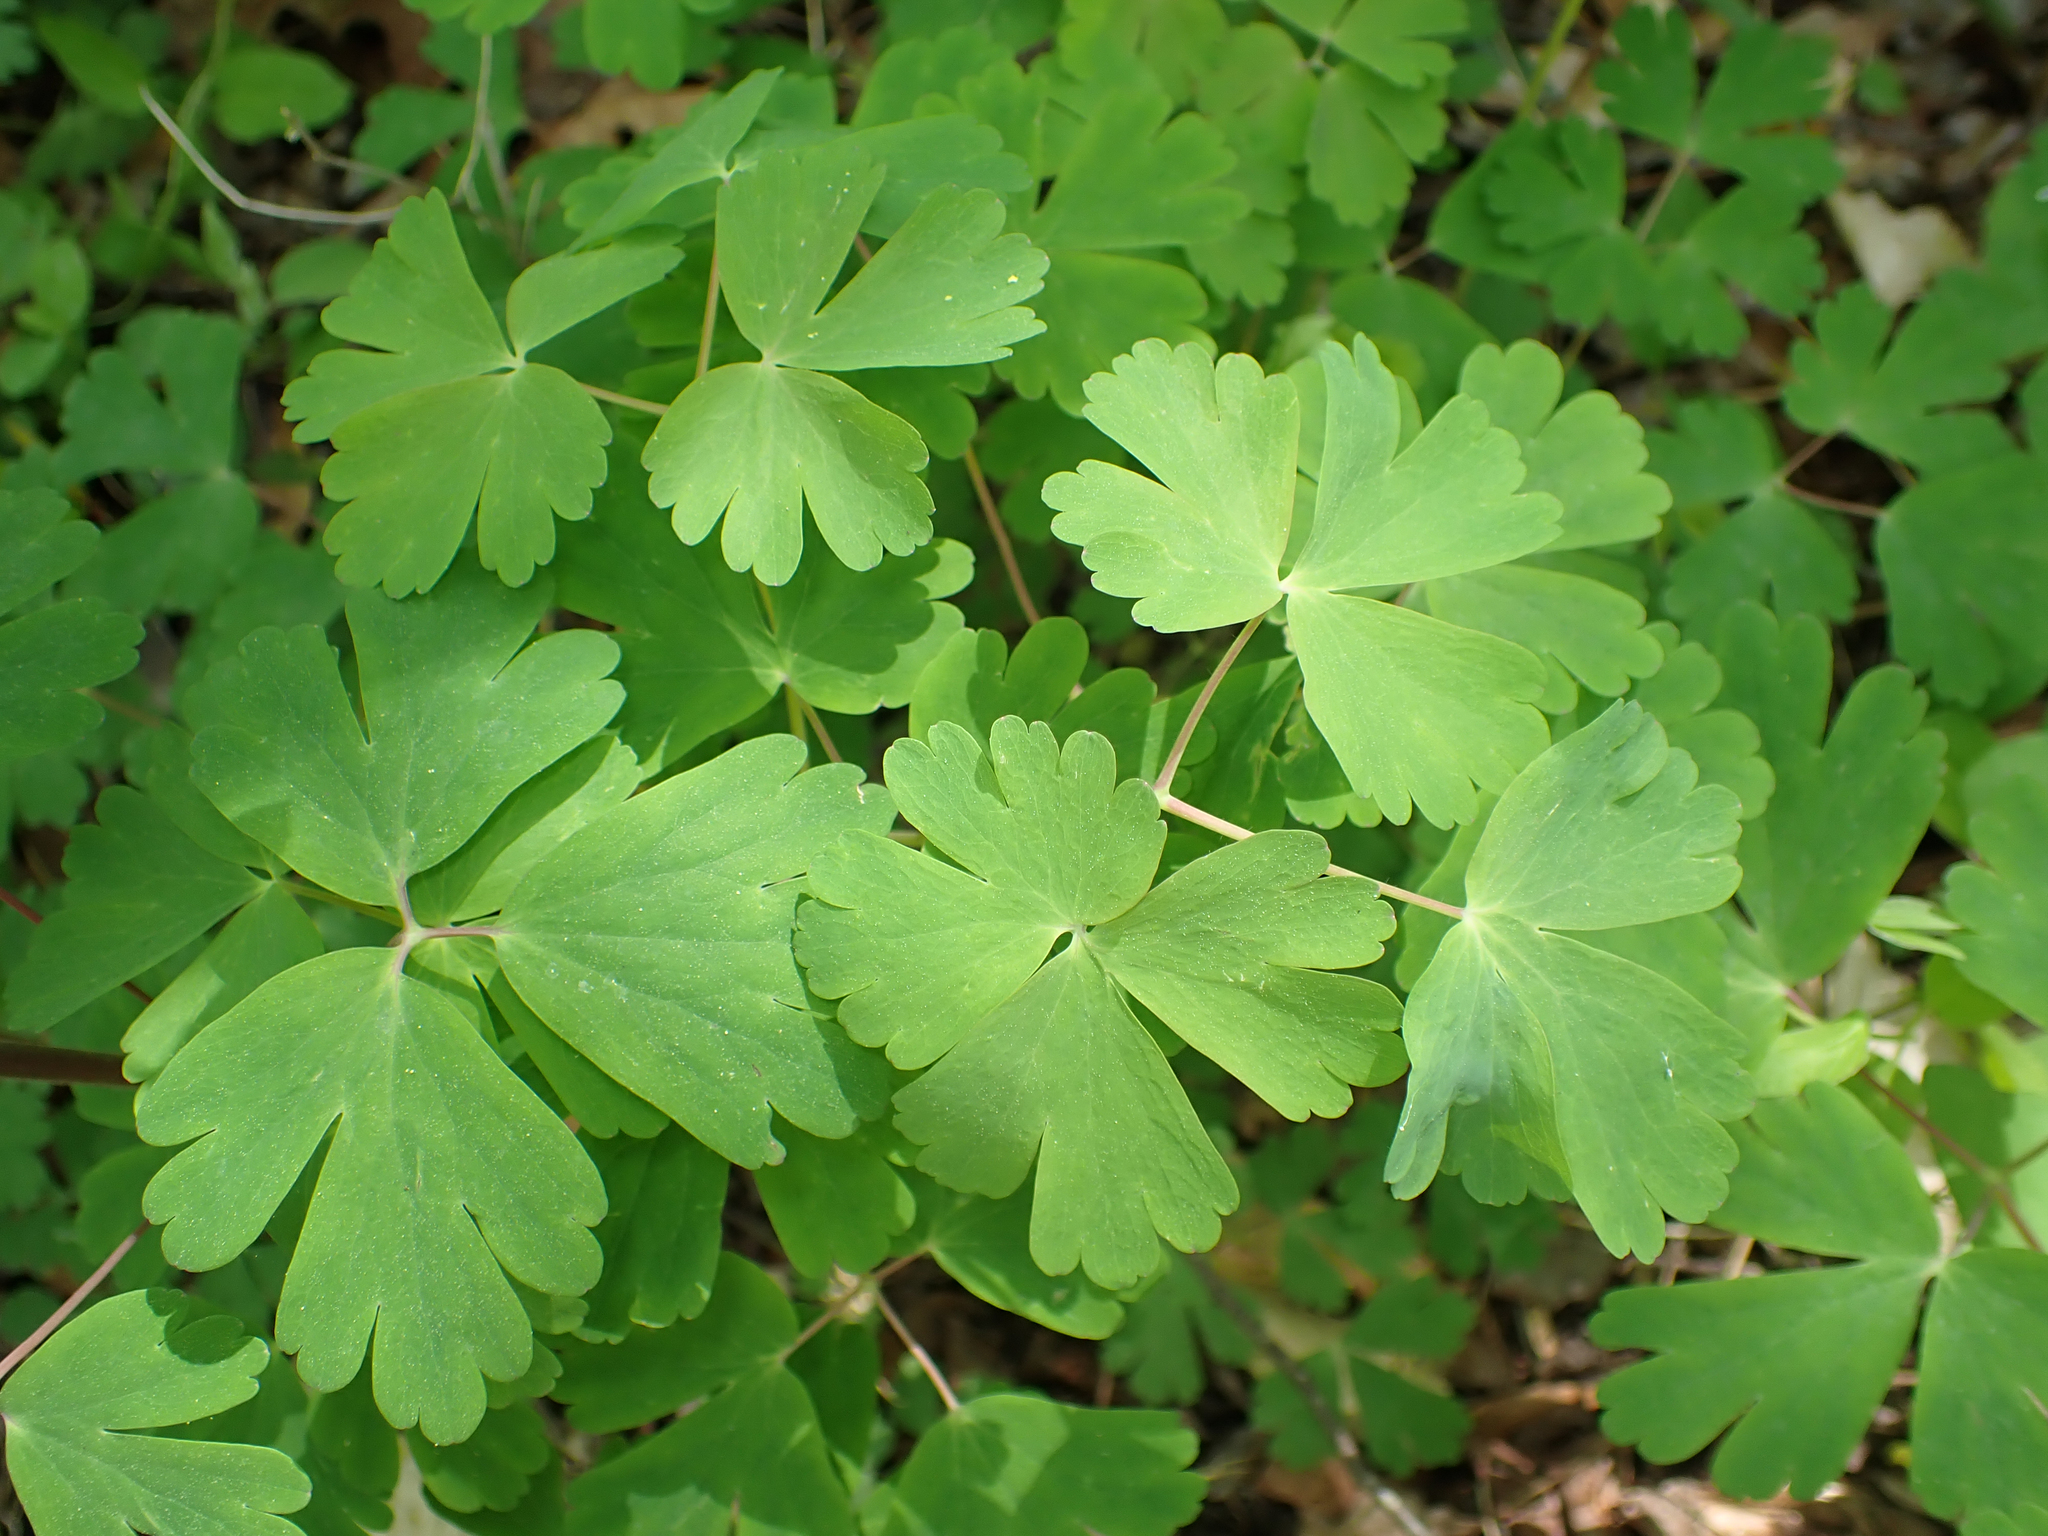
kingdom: Plantae
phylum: Tracheophyta
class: Magnoliopsida
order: Ranunculales
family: Ranunculaceae
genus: Aquilegia
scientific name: Aquilegia canadensis
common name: American columbine
